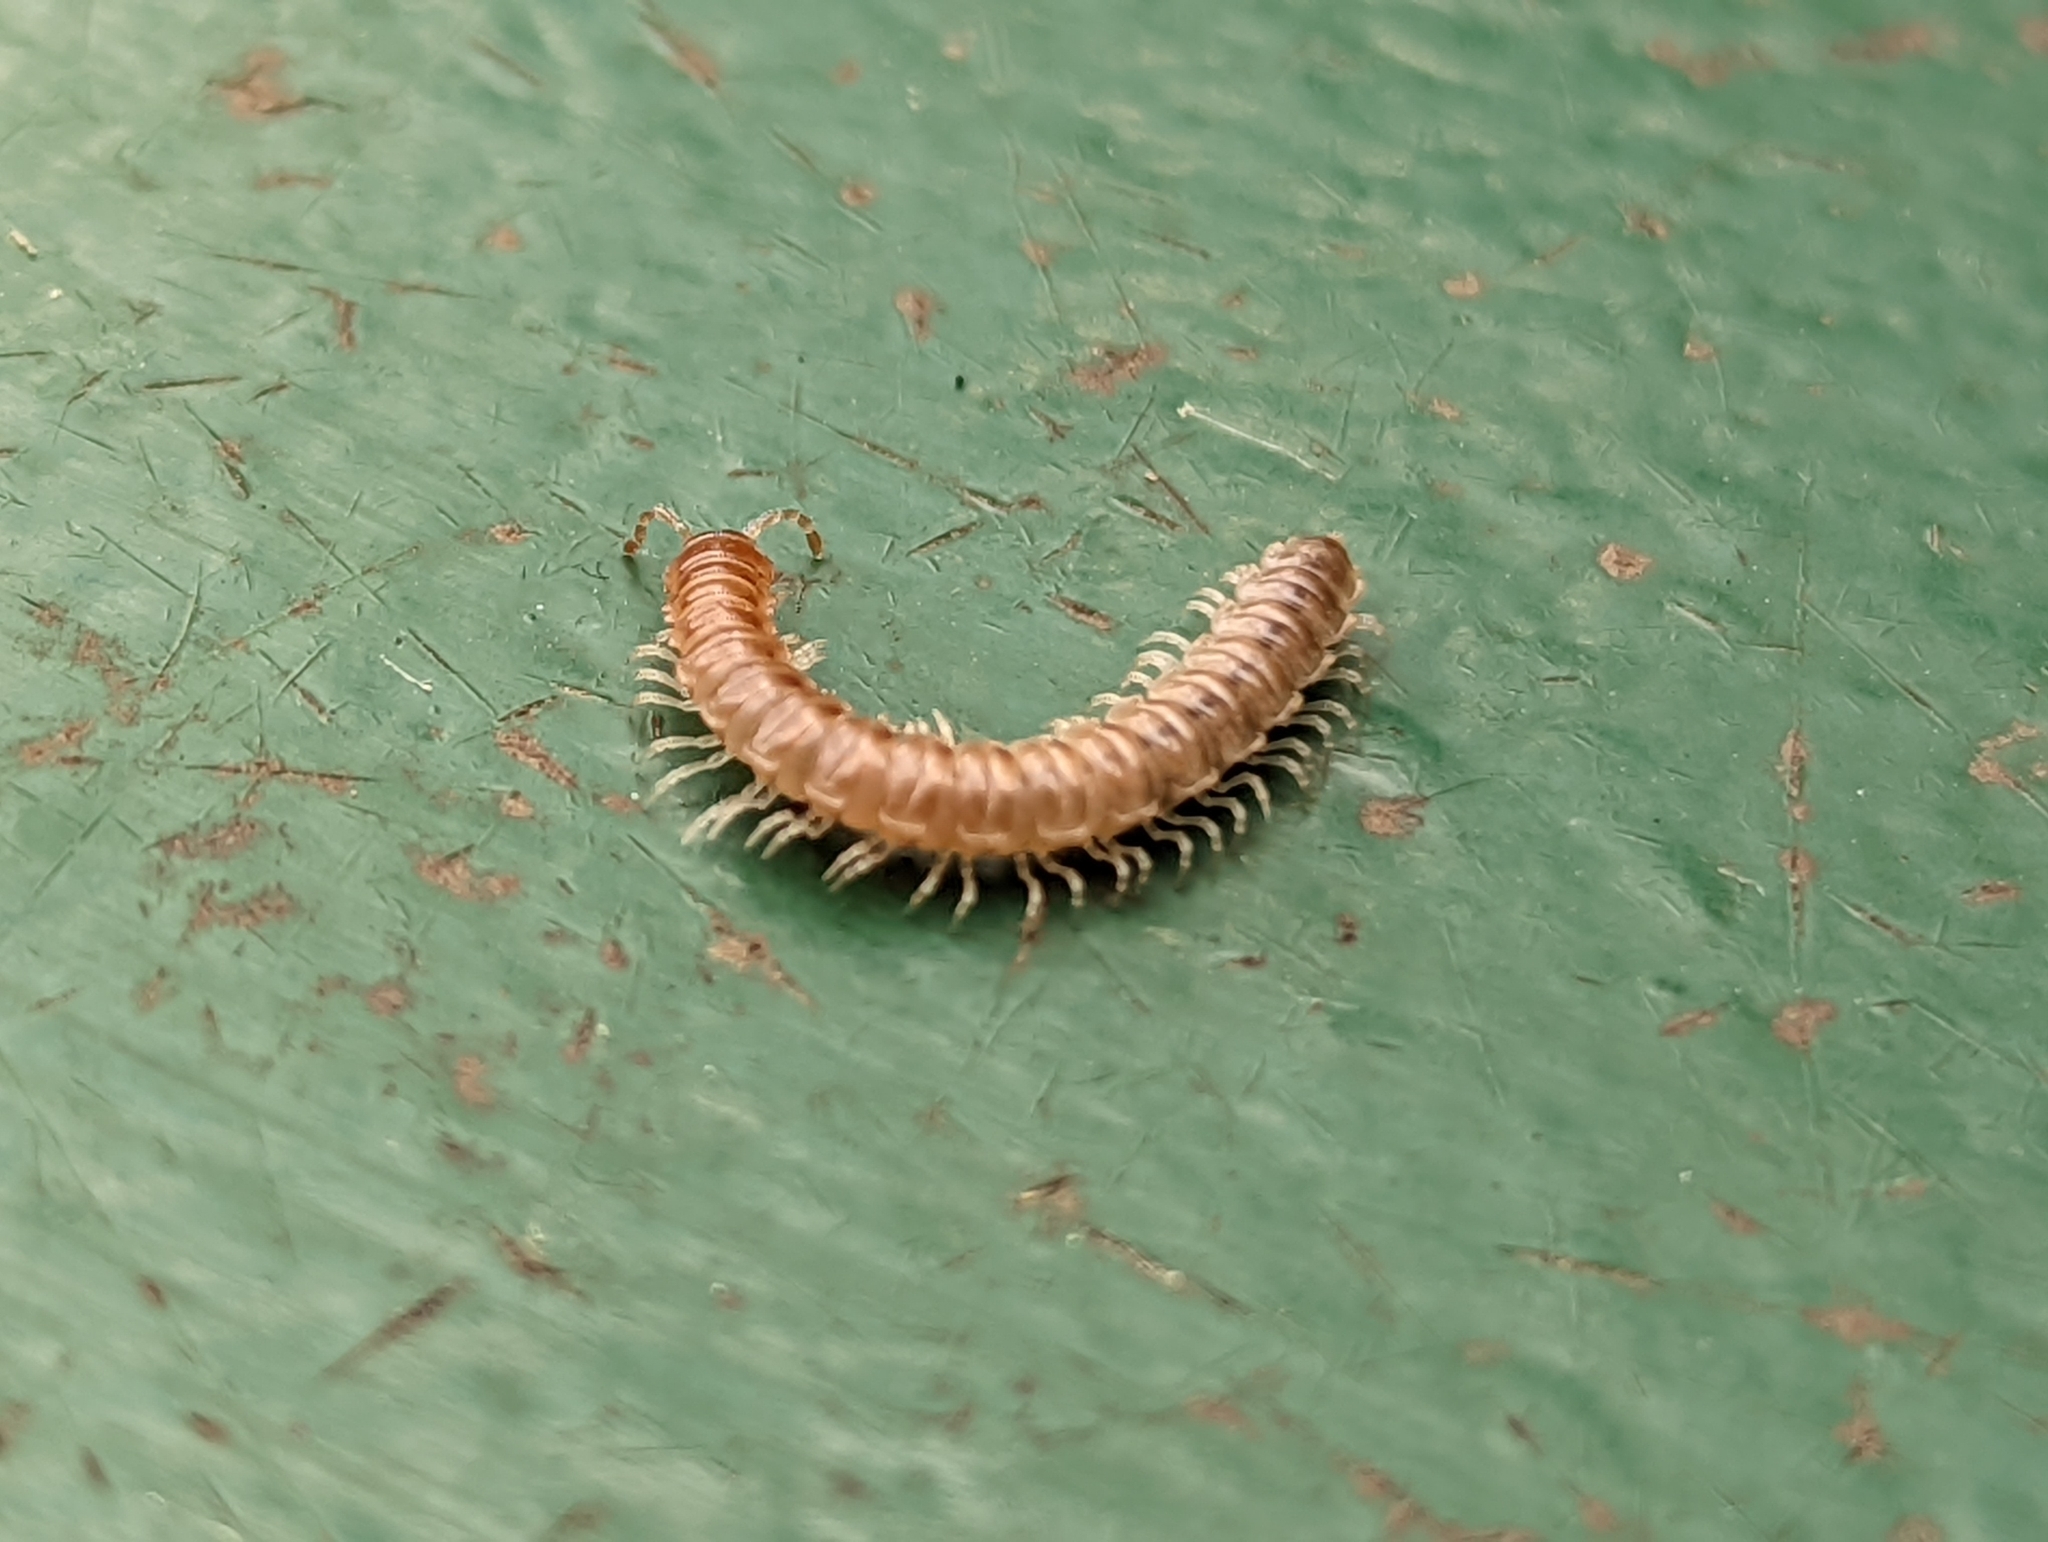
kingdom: Animalia
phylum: Arthropoda
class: Diplopoda
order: Polydesmida
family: Paradoxosomatidae
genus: Oxidus
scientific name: Oxidus gracilis
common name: Greenhouse millipede
